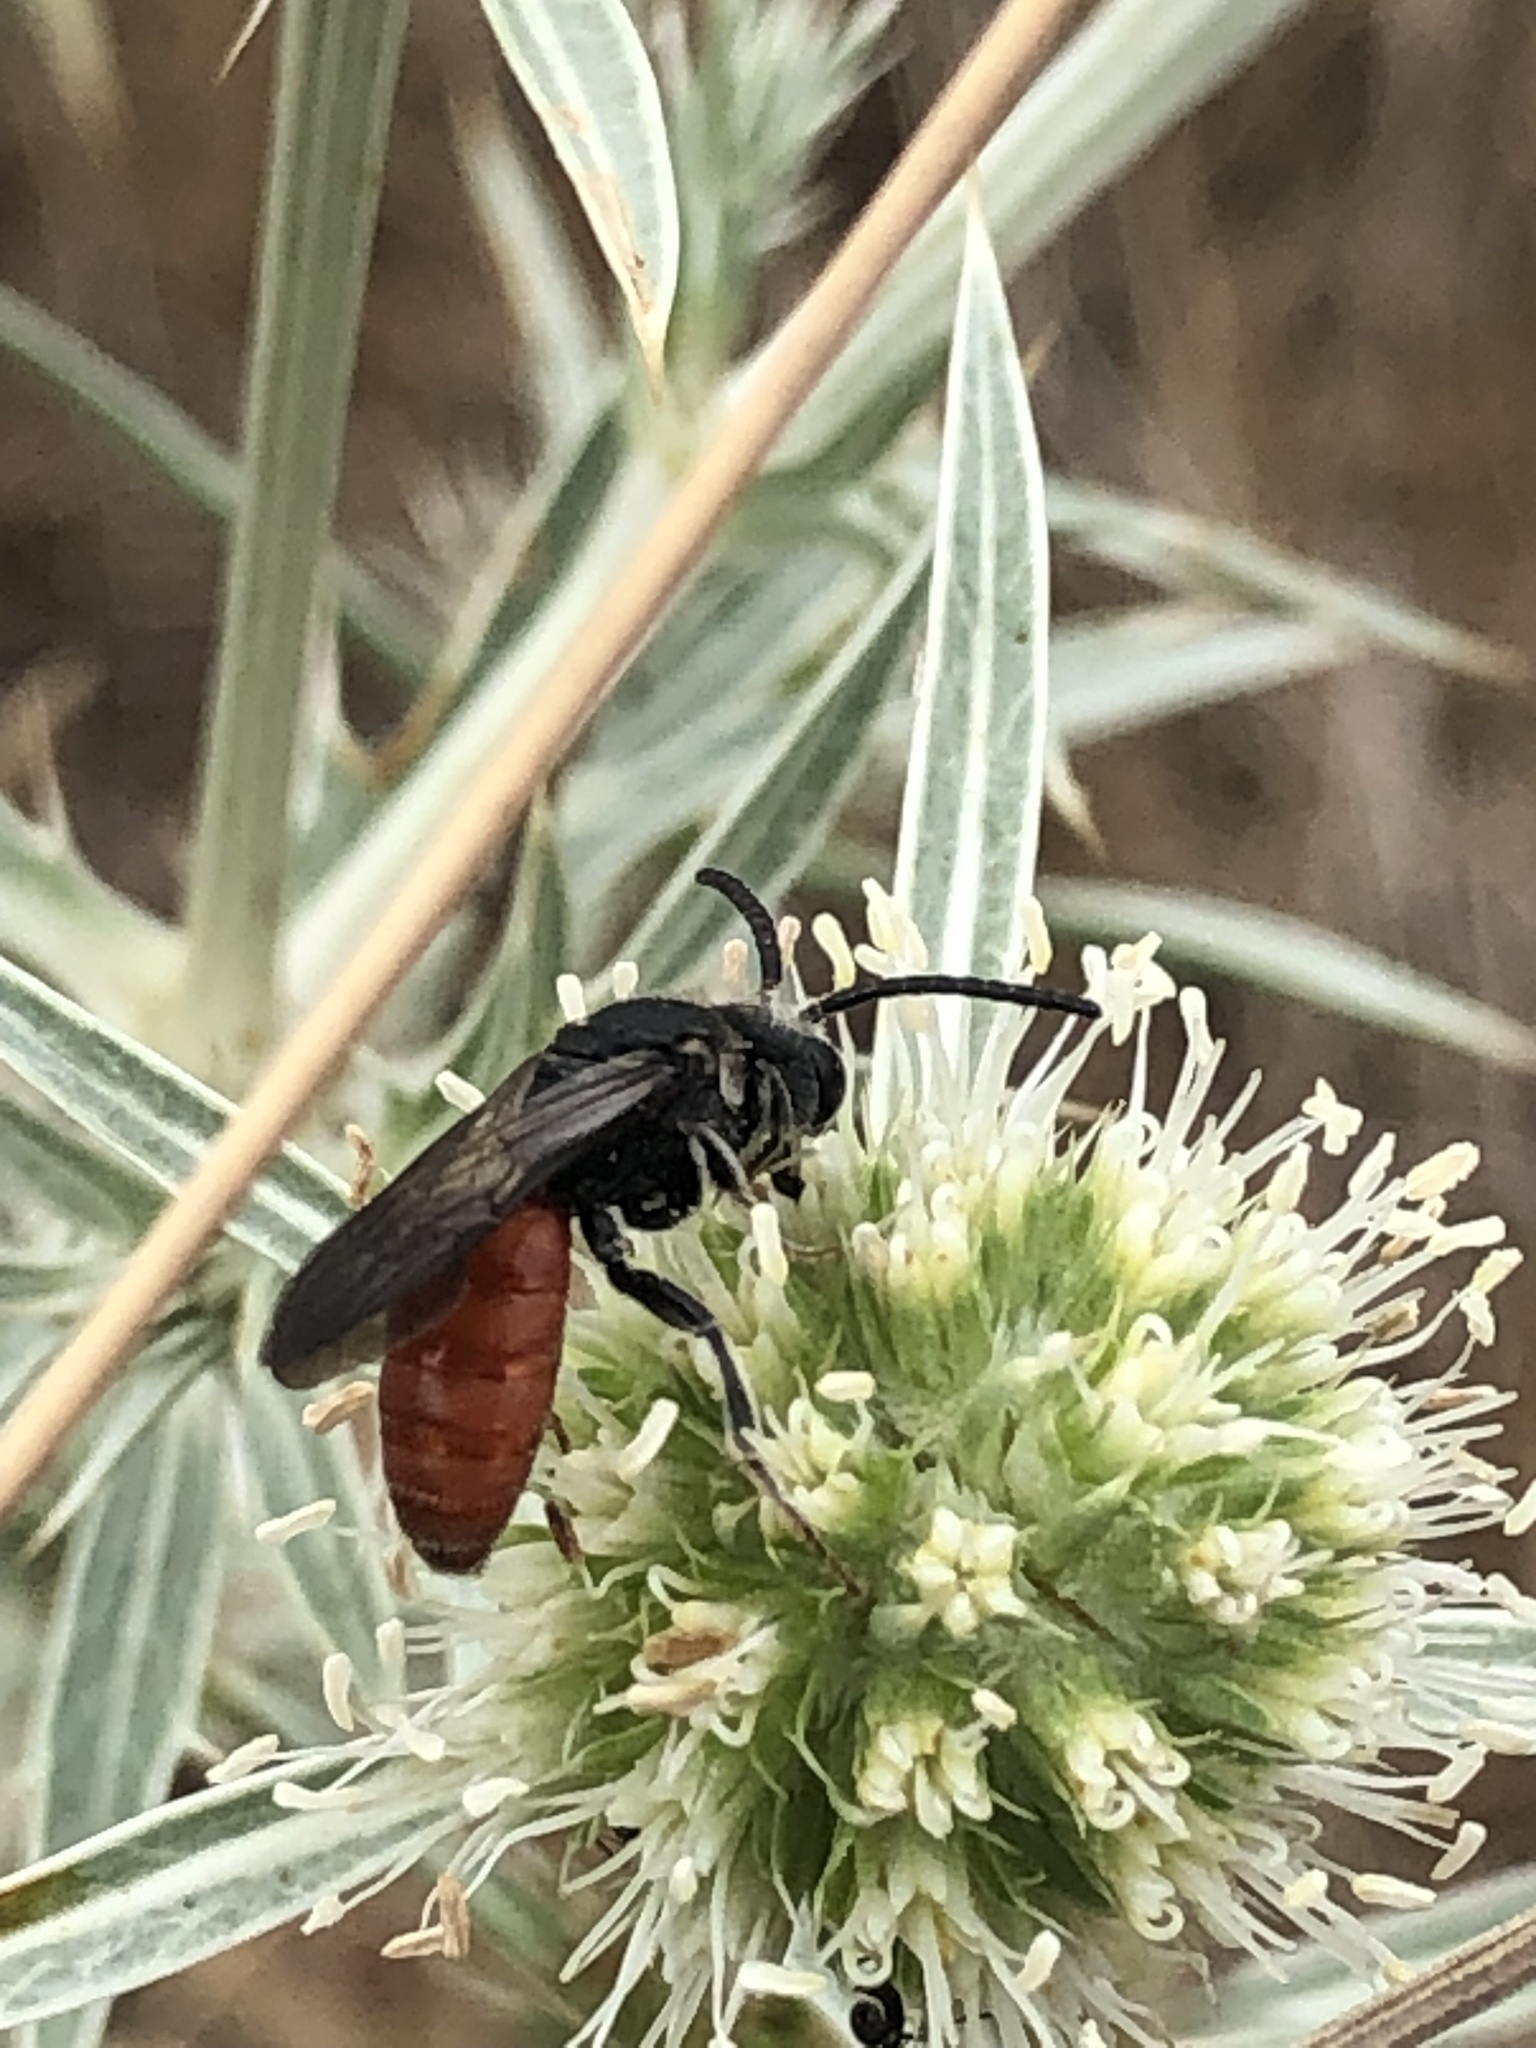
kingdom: Animalia
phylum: Arthropoda
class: Insecta
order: Hymenoptera
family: Halictidae
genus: Sphecodes
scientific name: Sphecodes albilabris
